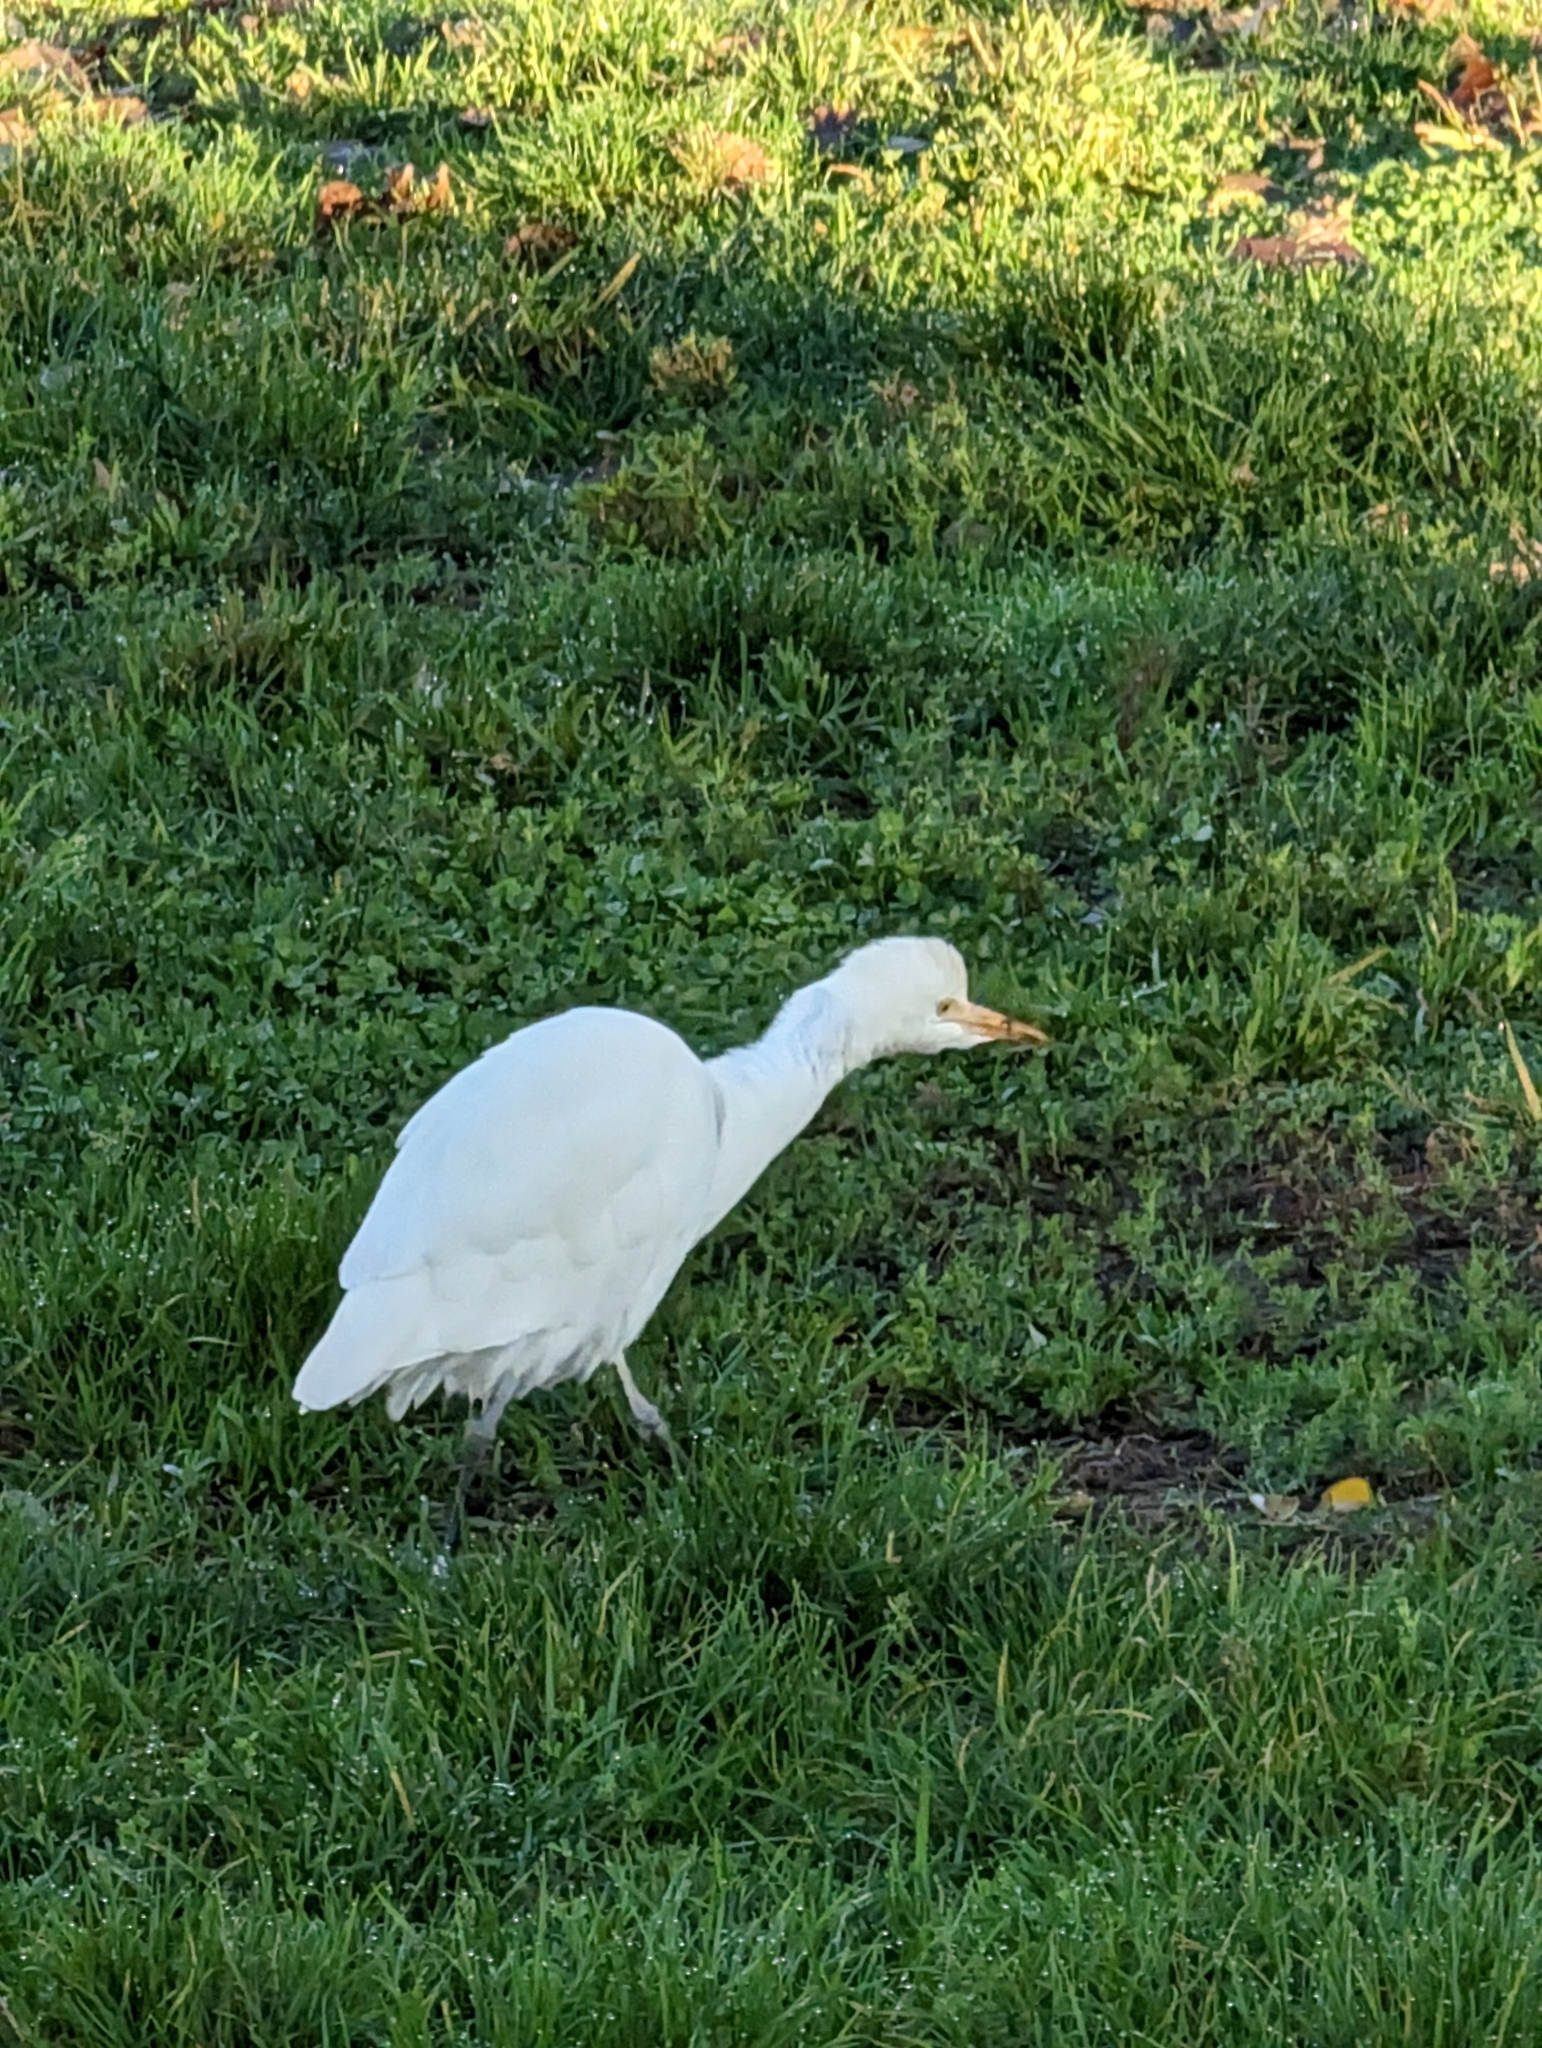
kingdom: Animalia
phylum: Chordata
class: Aves
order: Pelecaniformes
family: Ardeidae
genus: Bubulcus
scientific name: Bubulcus ibis
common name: Cattle egret
